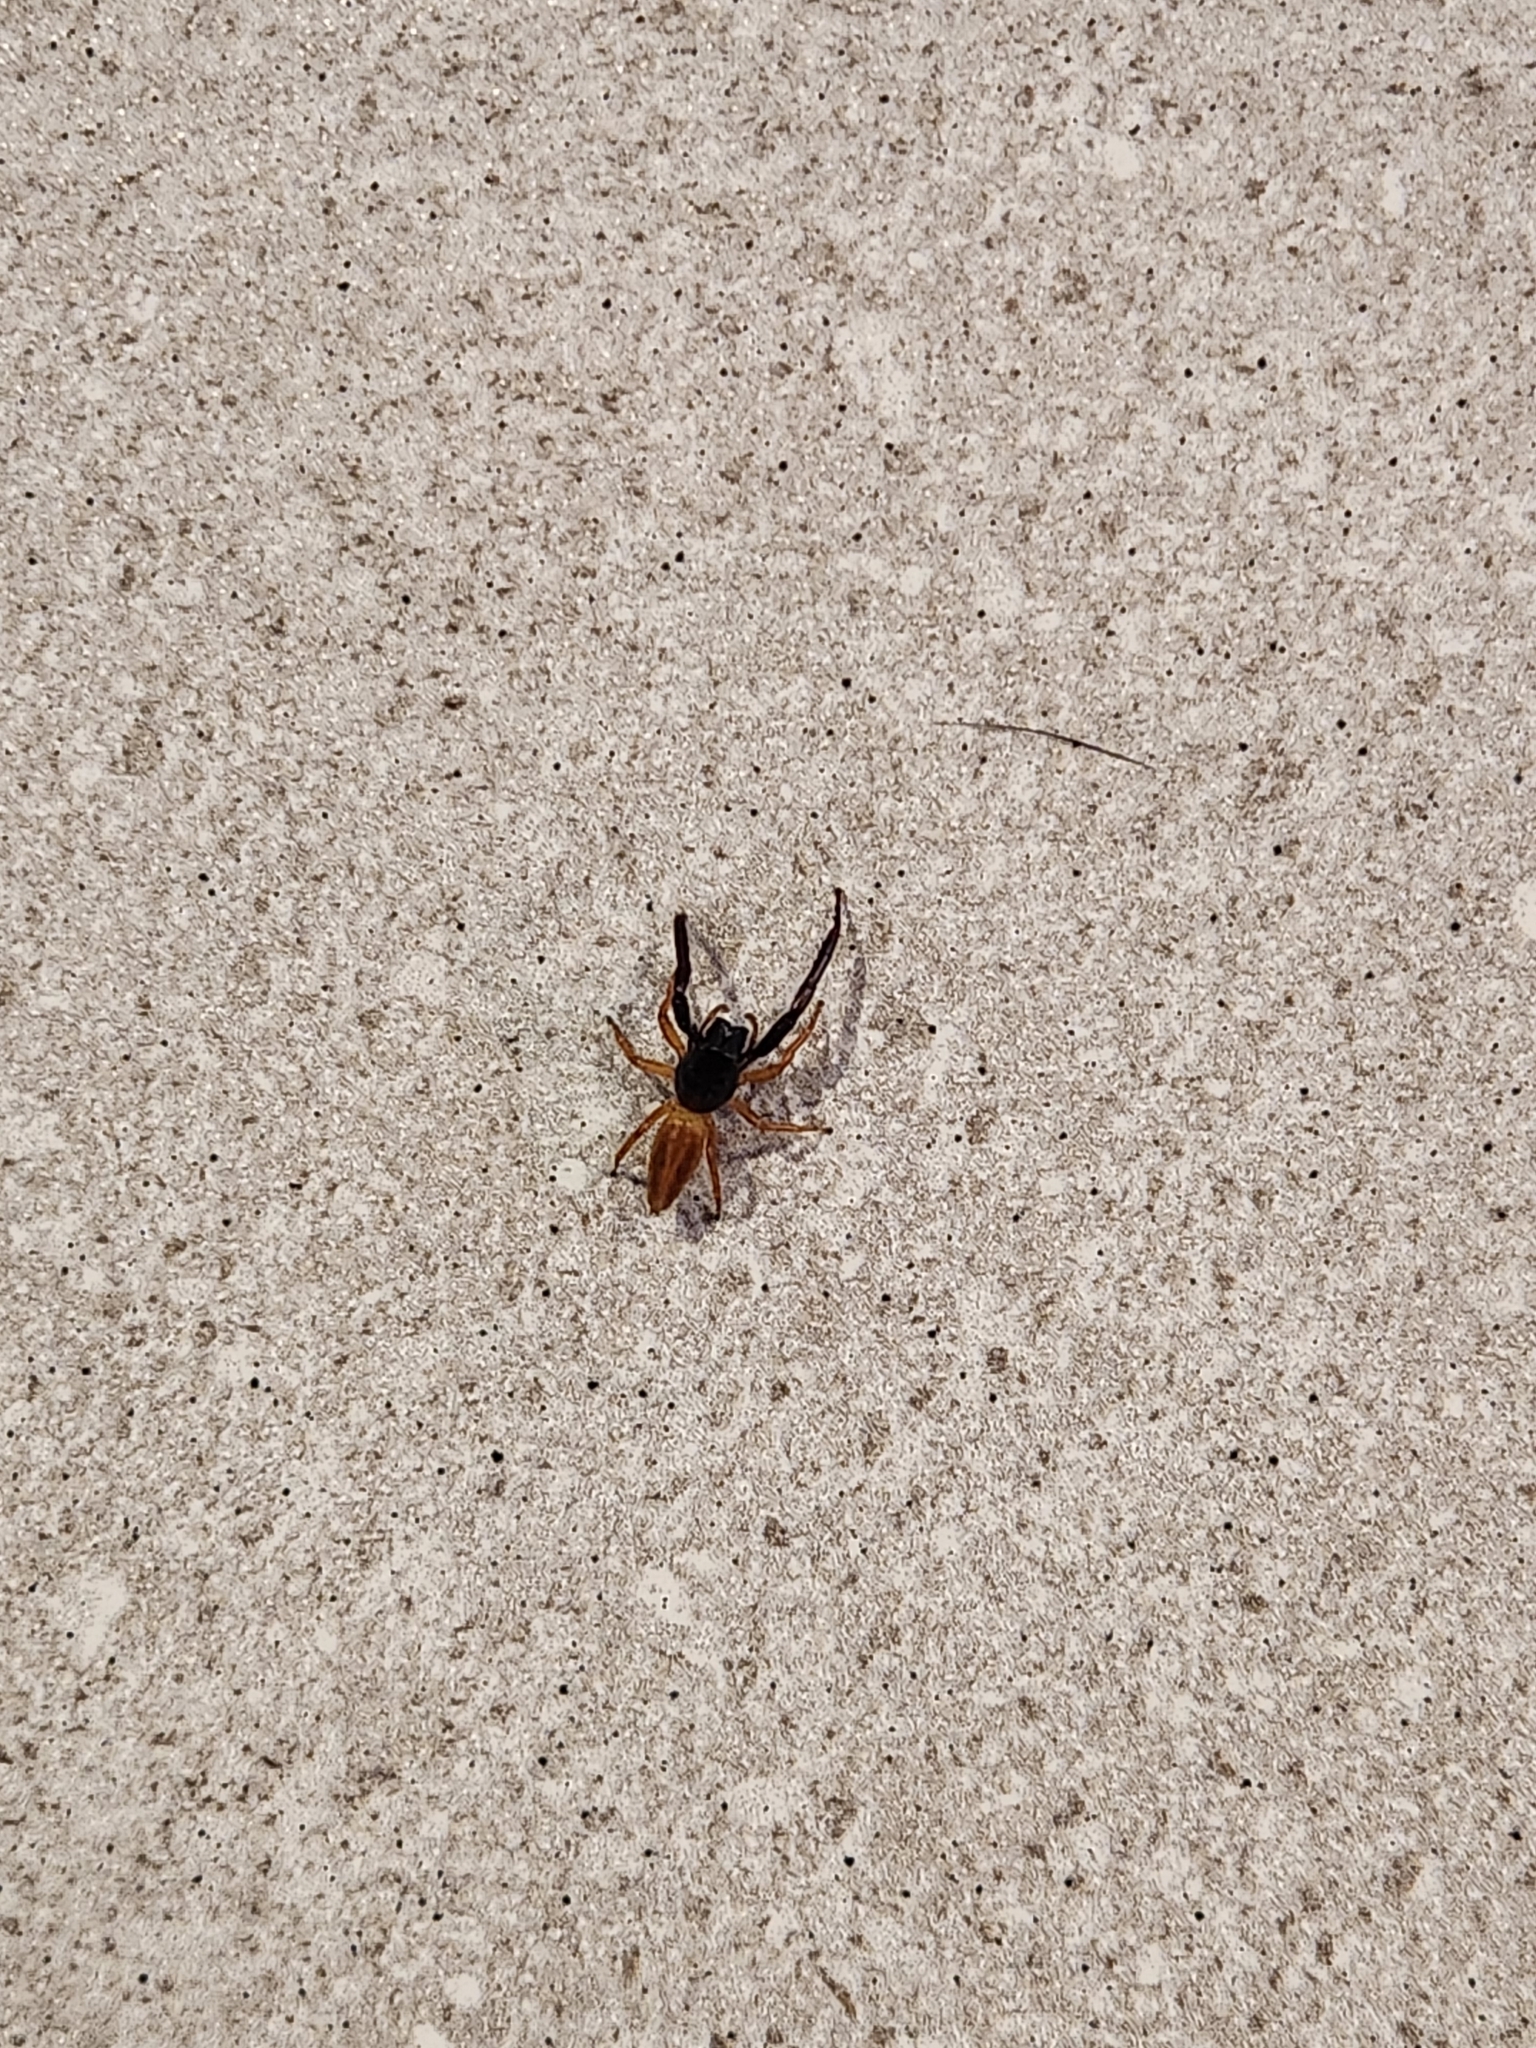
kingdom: Animalia
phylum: Arthropoda
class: Arachnida
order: Araneae
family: Salticidae
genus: Trite
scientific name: Trite planiceps
